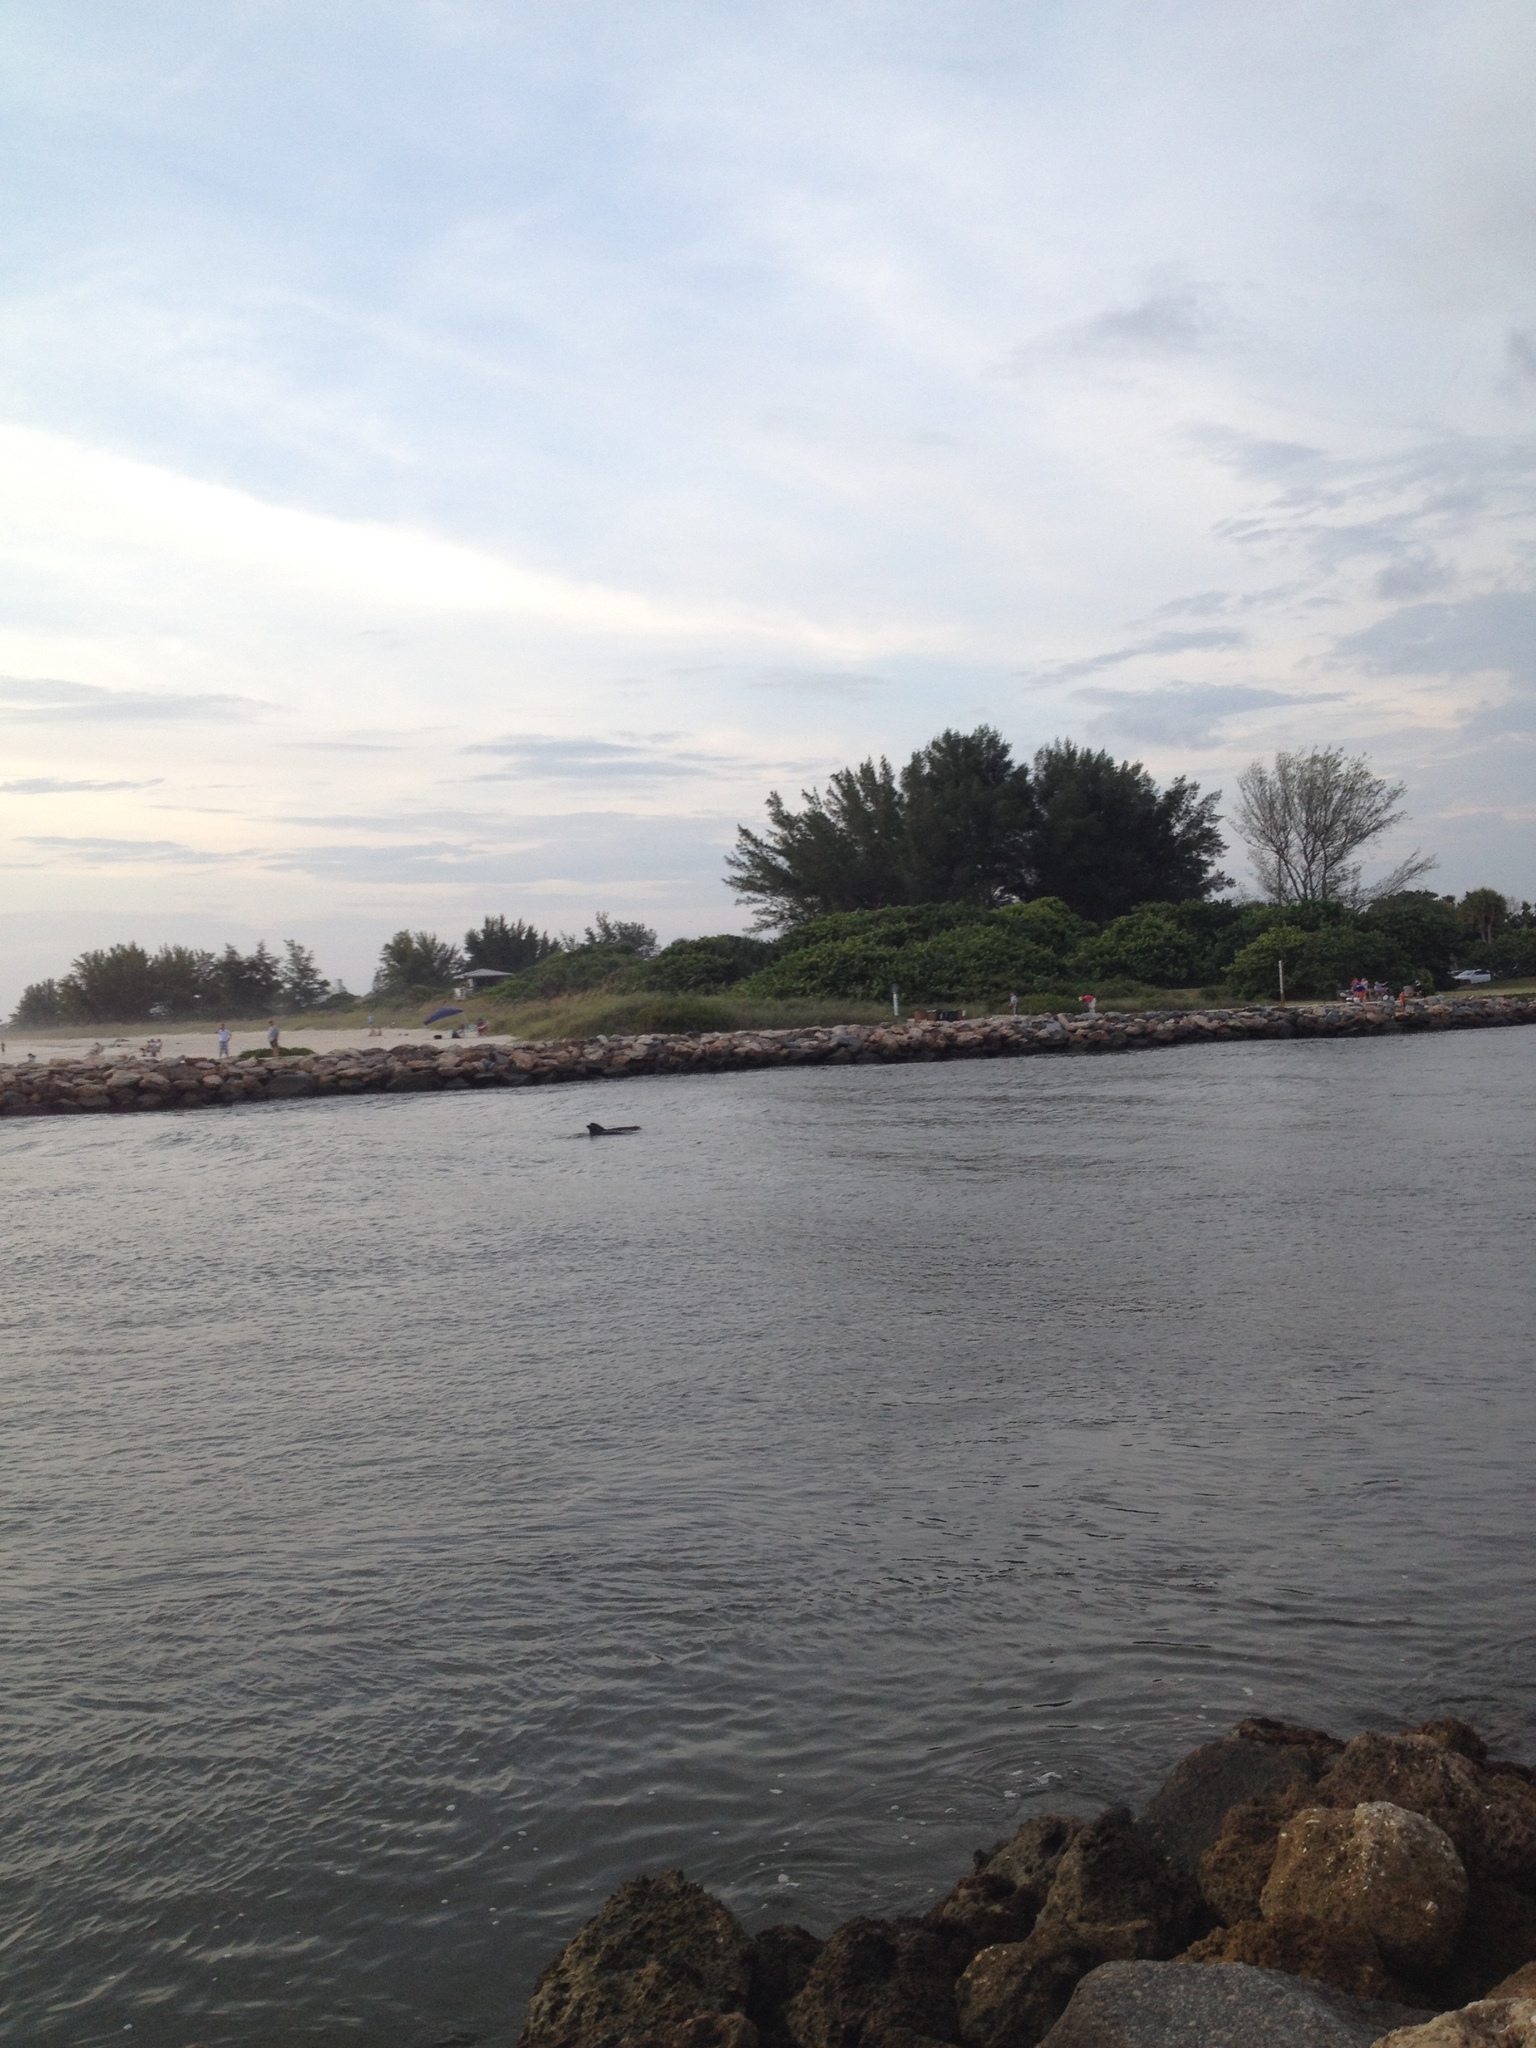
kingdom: Animalia
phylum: Chordata
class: Mammalia
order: Cetacea
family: Delphinidae
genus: Tursiops
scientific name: Tursiops truncatus
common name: Bottlenose dolphin
